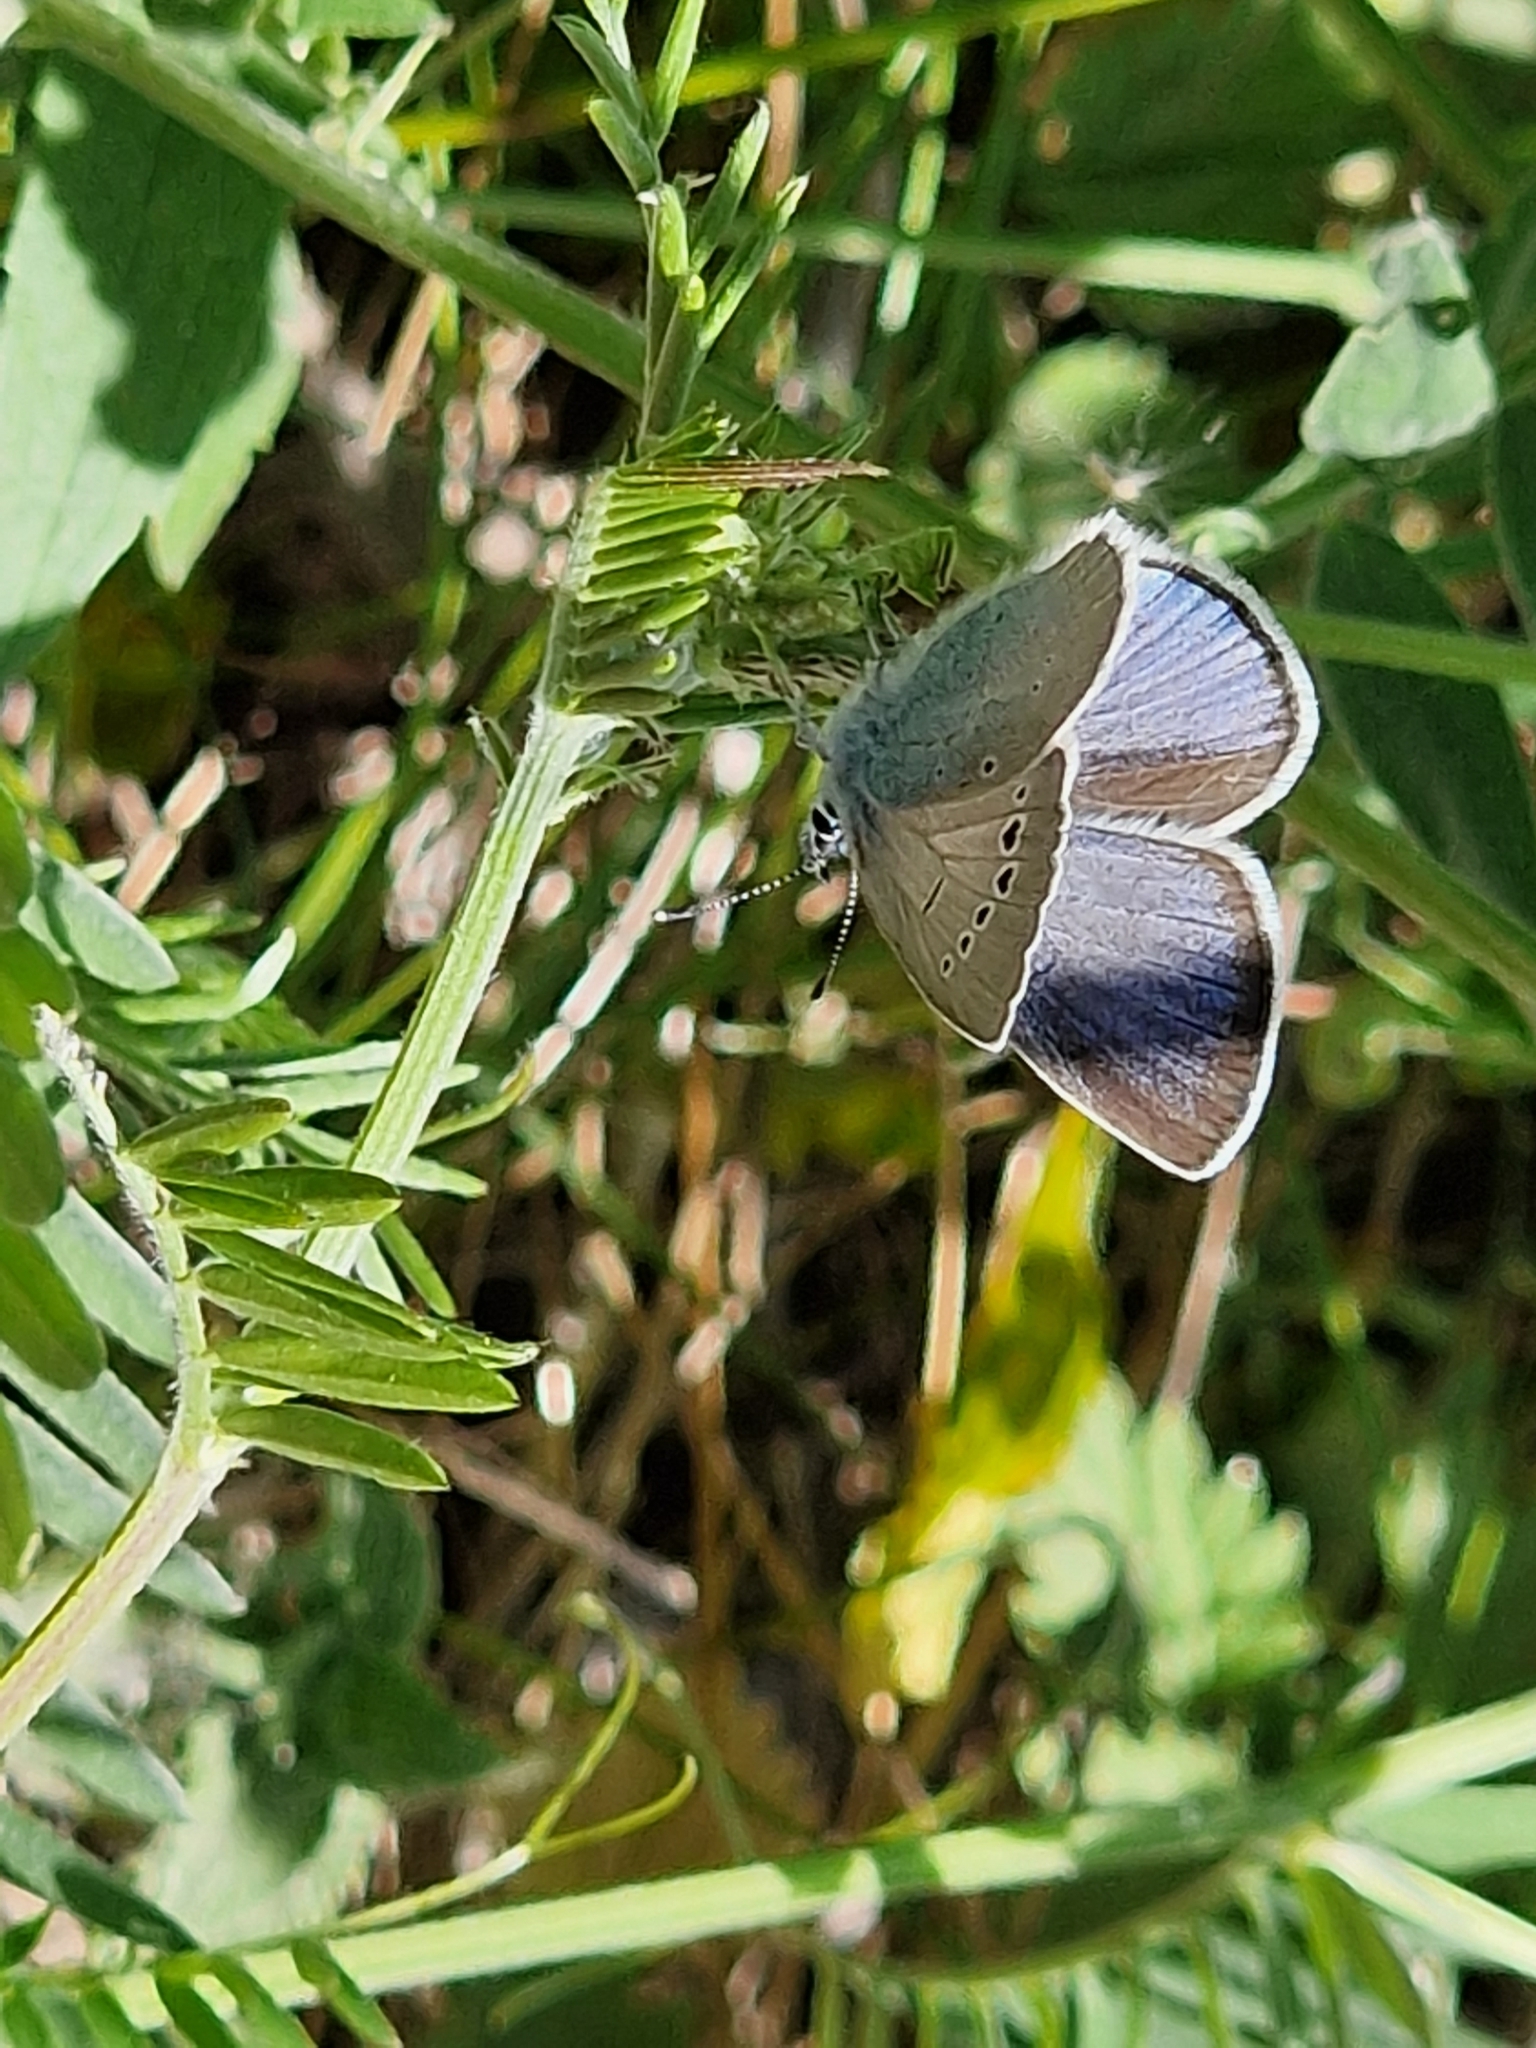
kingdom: Animalia
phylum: Arthropoda
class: Insecta
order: Lepidoptera
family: Lycaenidae
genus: Glaucopsyche
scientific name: Glaucopsyche alexis
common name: Green-underside blue
